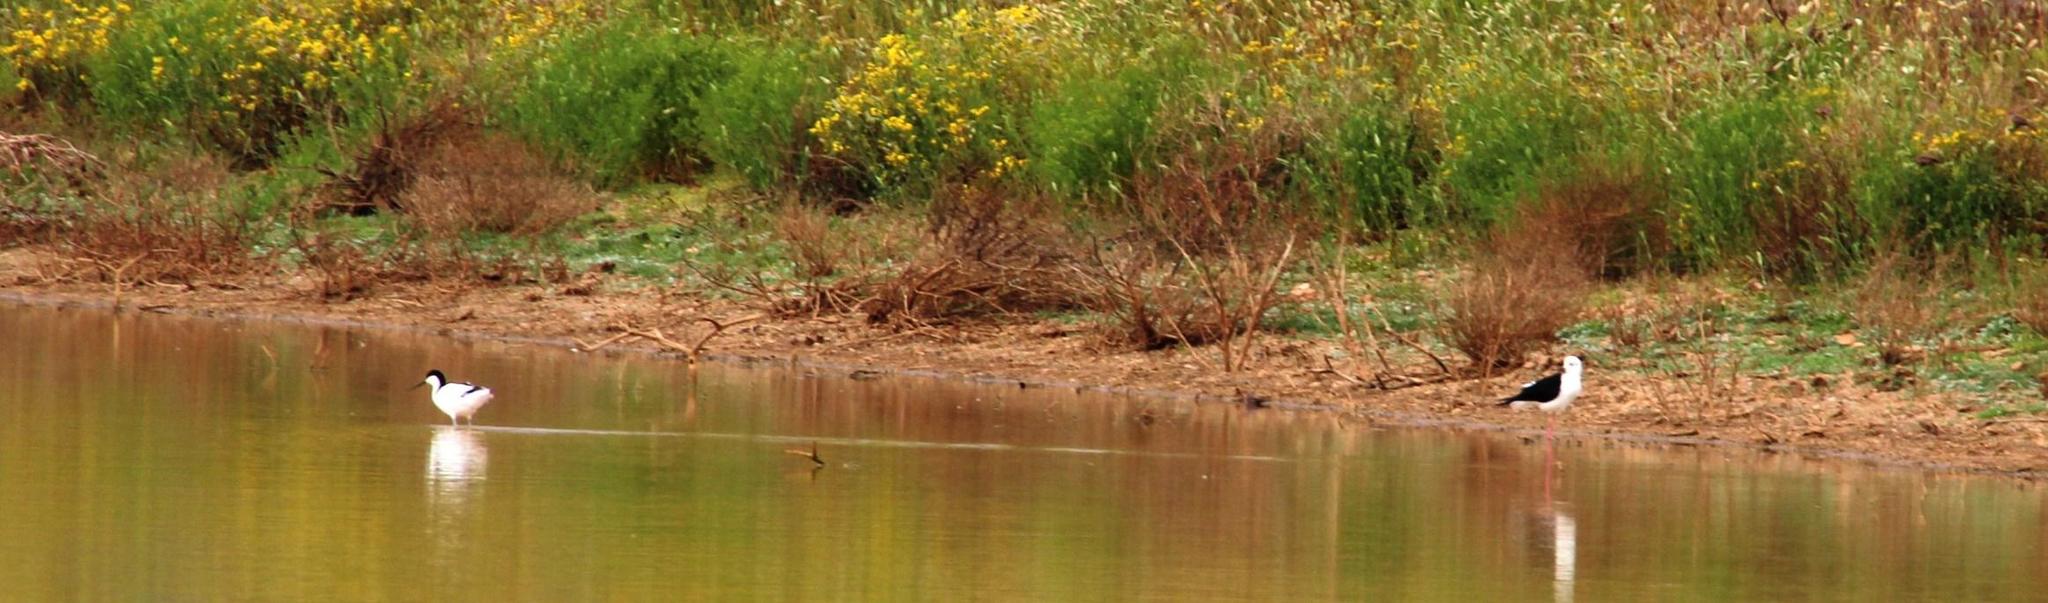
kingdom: Animalia
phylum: Chordata
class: Aves
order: Charadriiformes
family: Recurvirostridae
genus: Himantopus
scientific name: Himantopus himantopus
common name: Black-winged stilt
